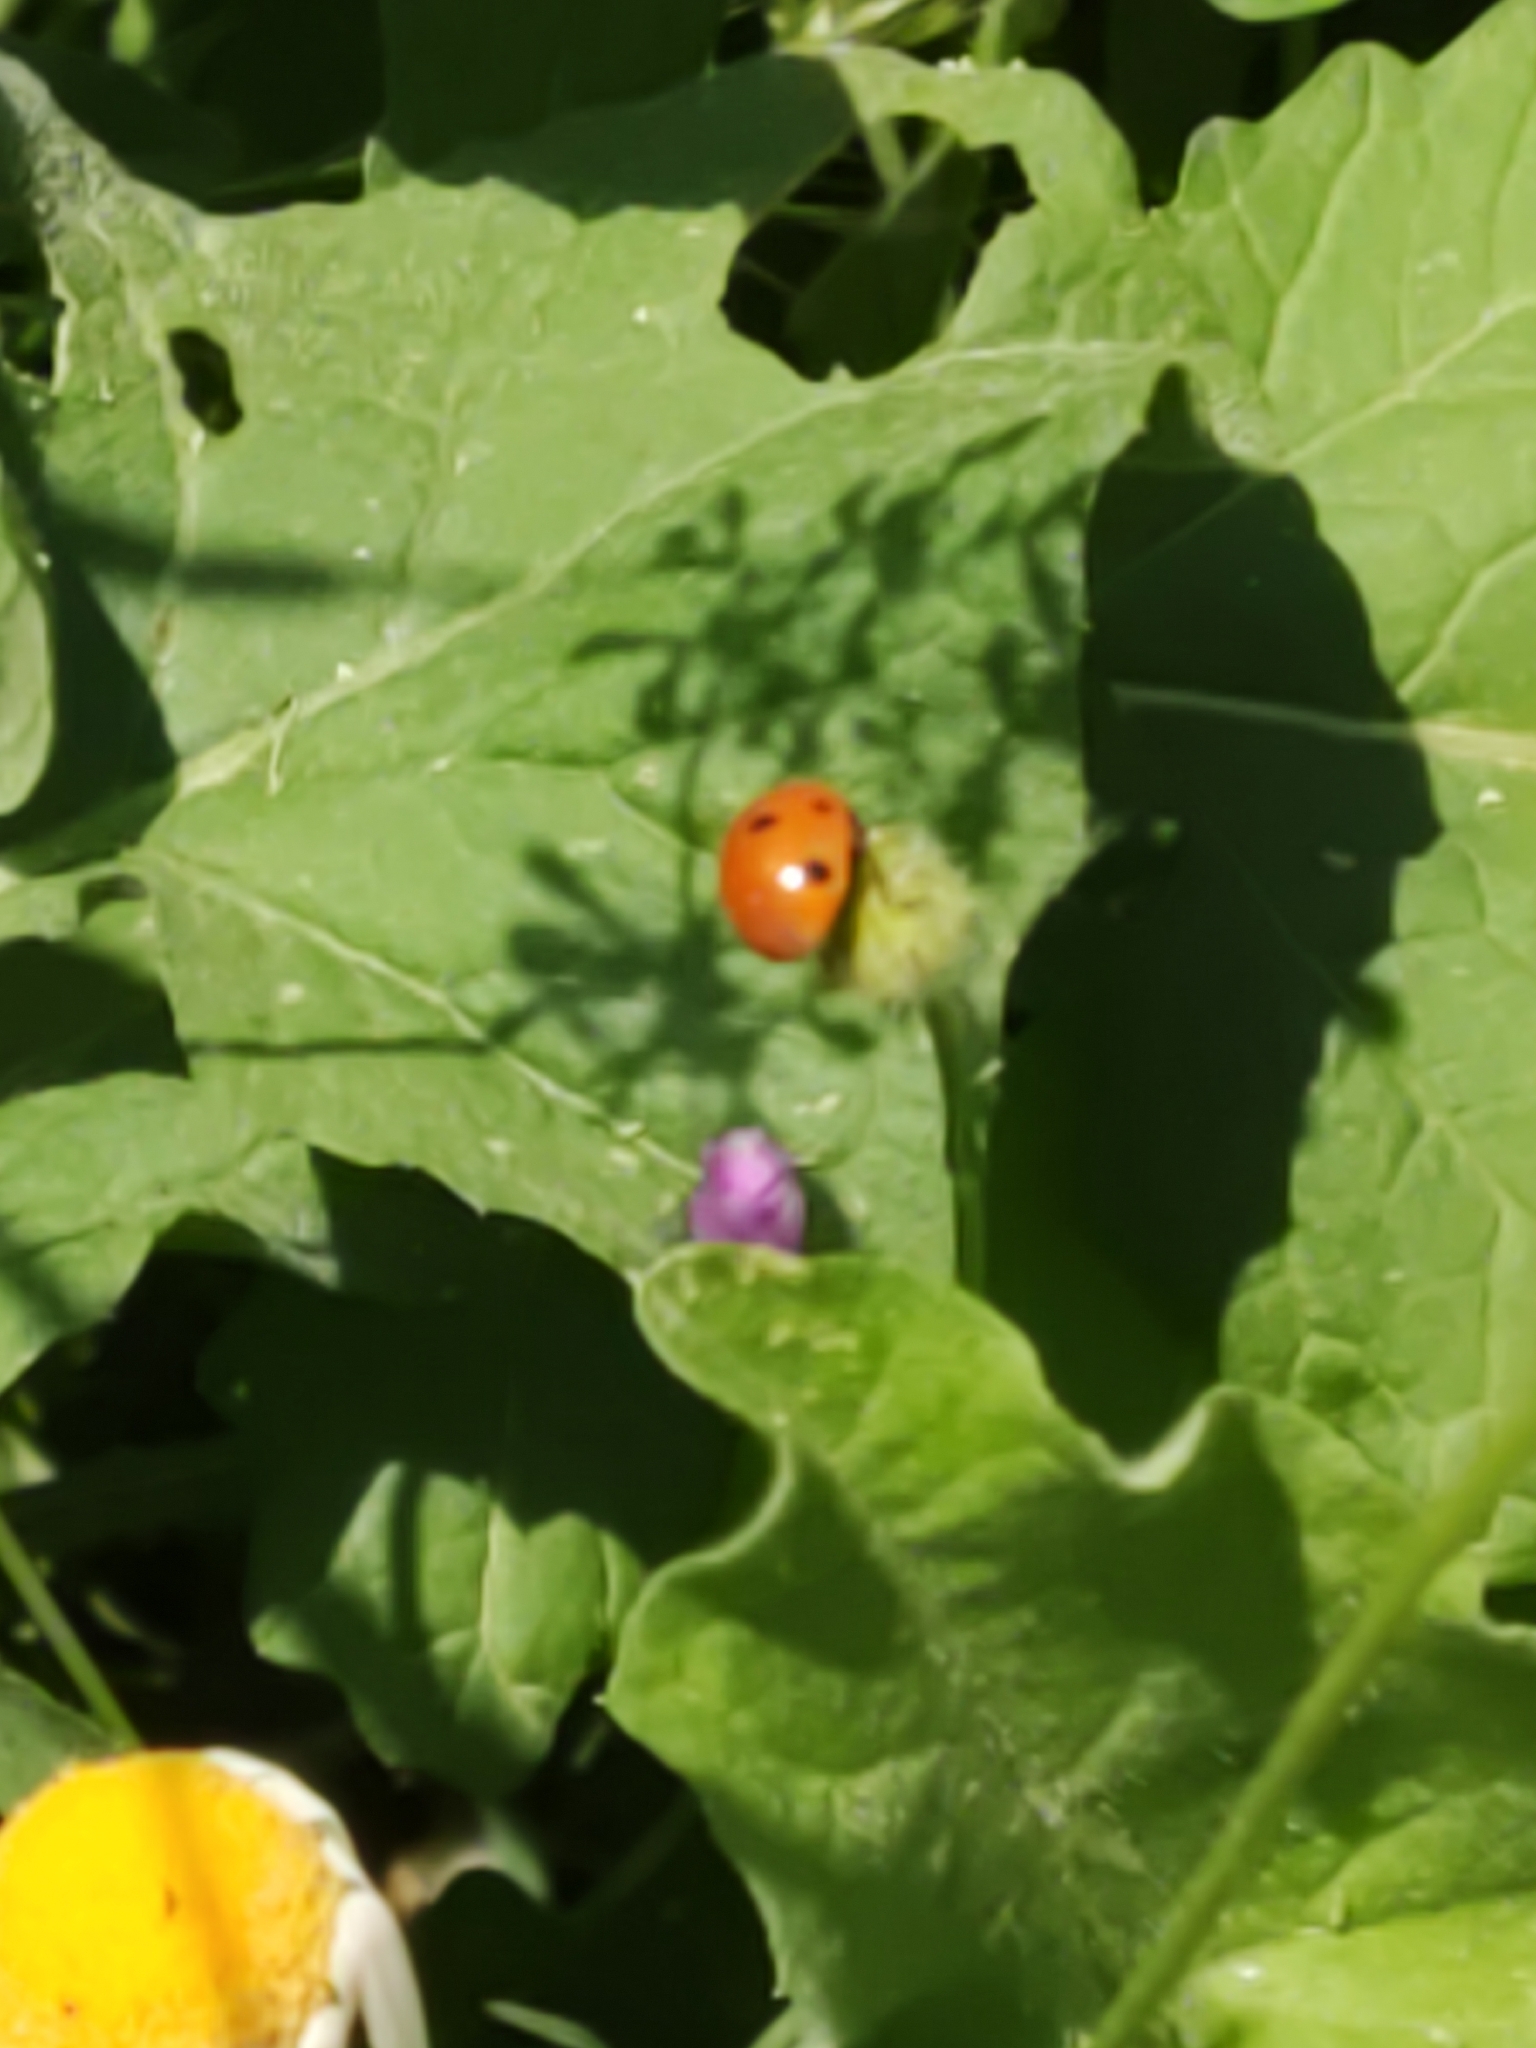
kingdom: Animalia
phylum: Arthropoda
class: Insecta
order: Coleoptera
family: Coccinellidae
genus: Coccinella
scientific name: Coccinella septempunctata
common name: Sevenspotted lady beetle
